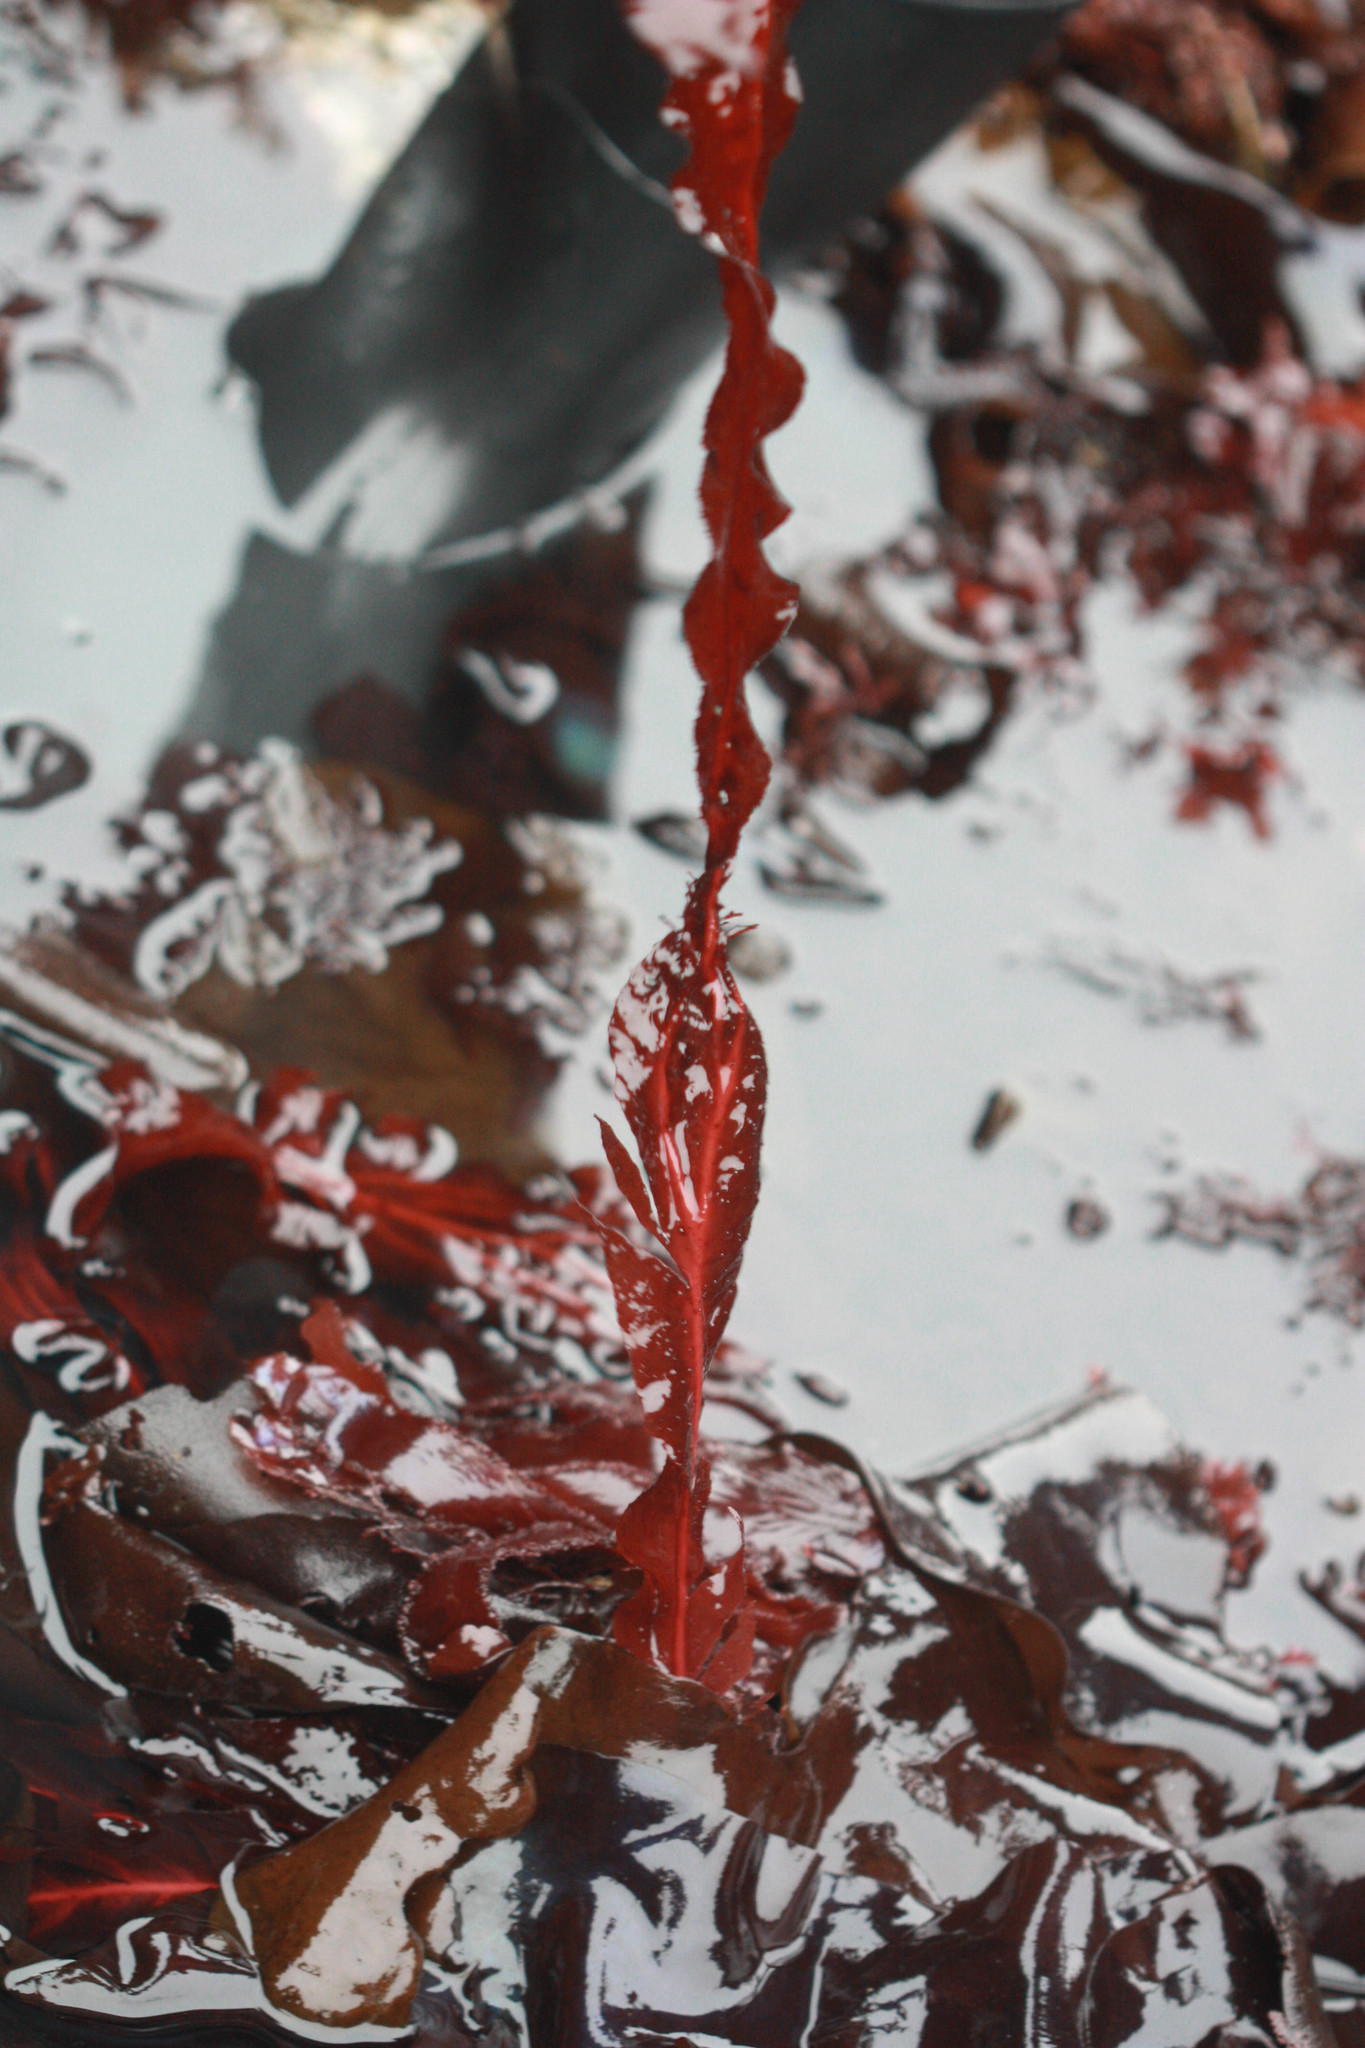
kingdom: Plantae
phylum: Rhodophyta
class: Florideophyceae
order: Gigartinales
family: Kallymeniaceae
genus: Erythrophyllum
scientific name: Erythrophyllum delesserioides
